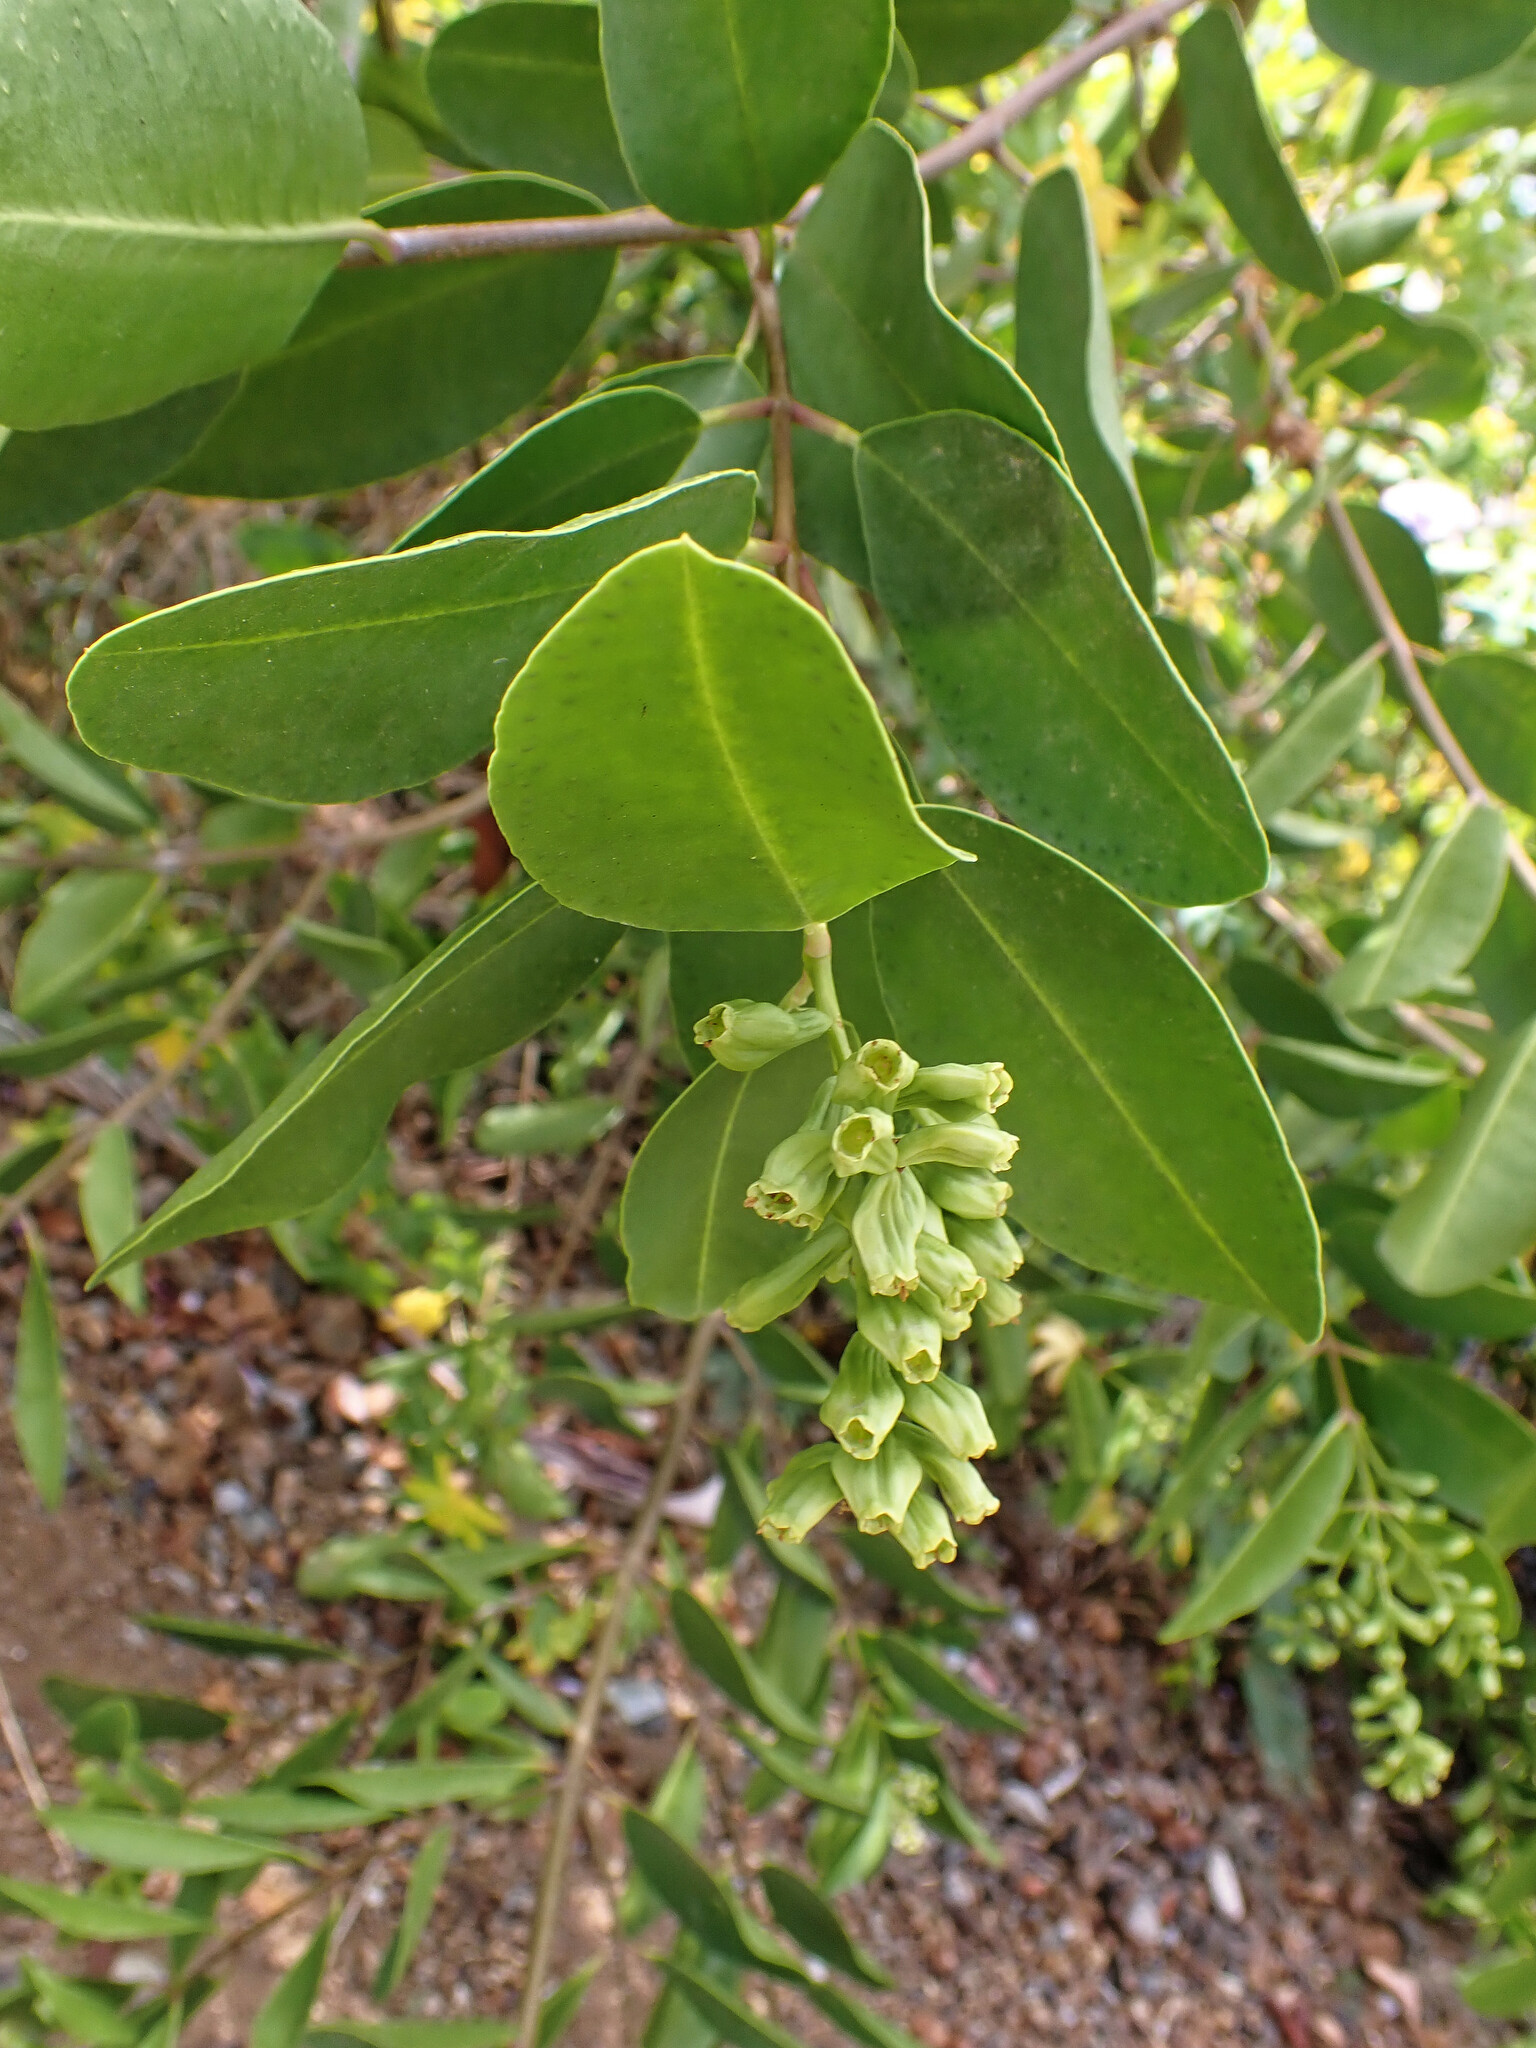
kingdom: Plantae
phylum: Tracheophyta
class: Magnoliopsida
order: Myrtales
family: Combretaceae
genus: Laguncularia
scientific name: Laguncularia racemosa
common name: White mangrove
